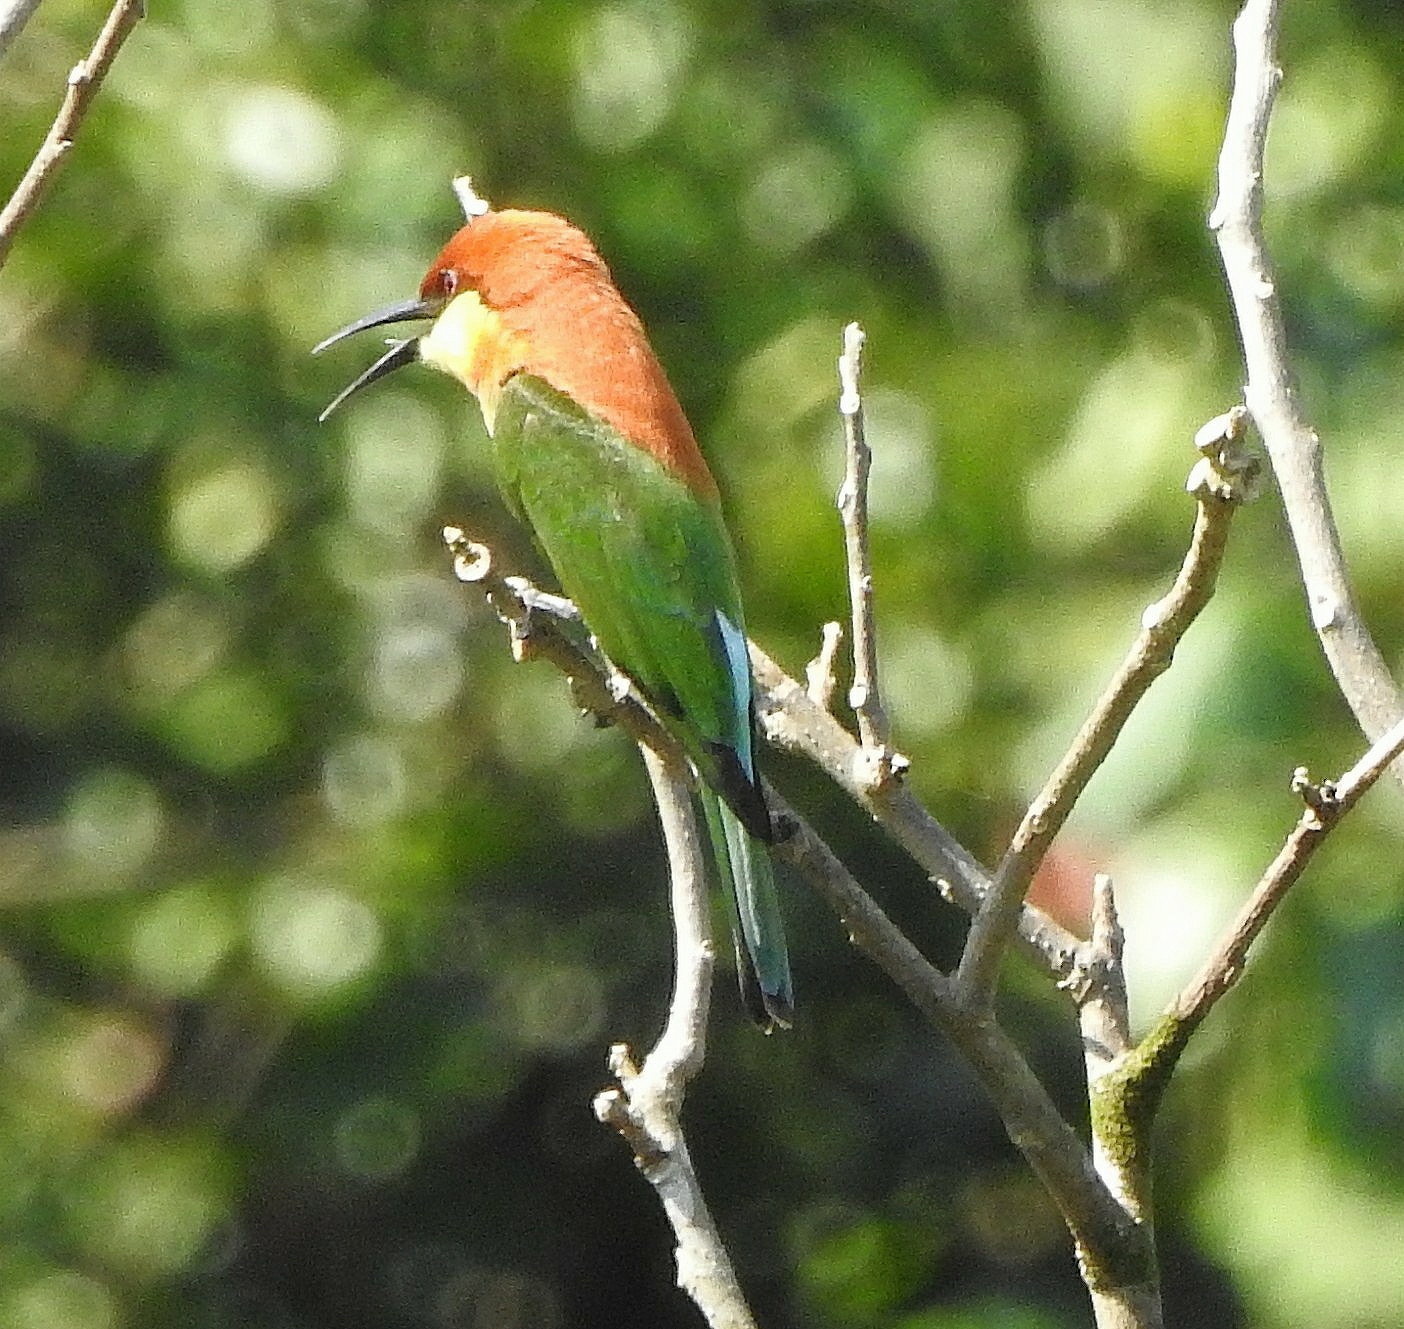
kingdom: Animalia
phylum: Chordata
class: Aves
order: Coraciiformes
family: Meropidae
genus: Merops
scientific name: Merops leschenaulti
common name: Chestnut-headed bee-eater
